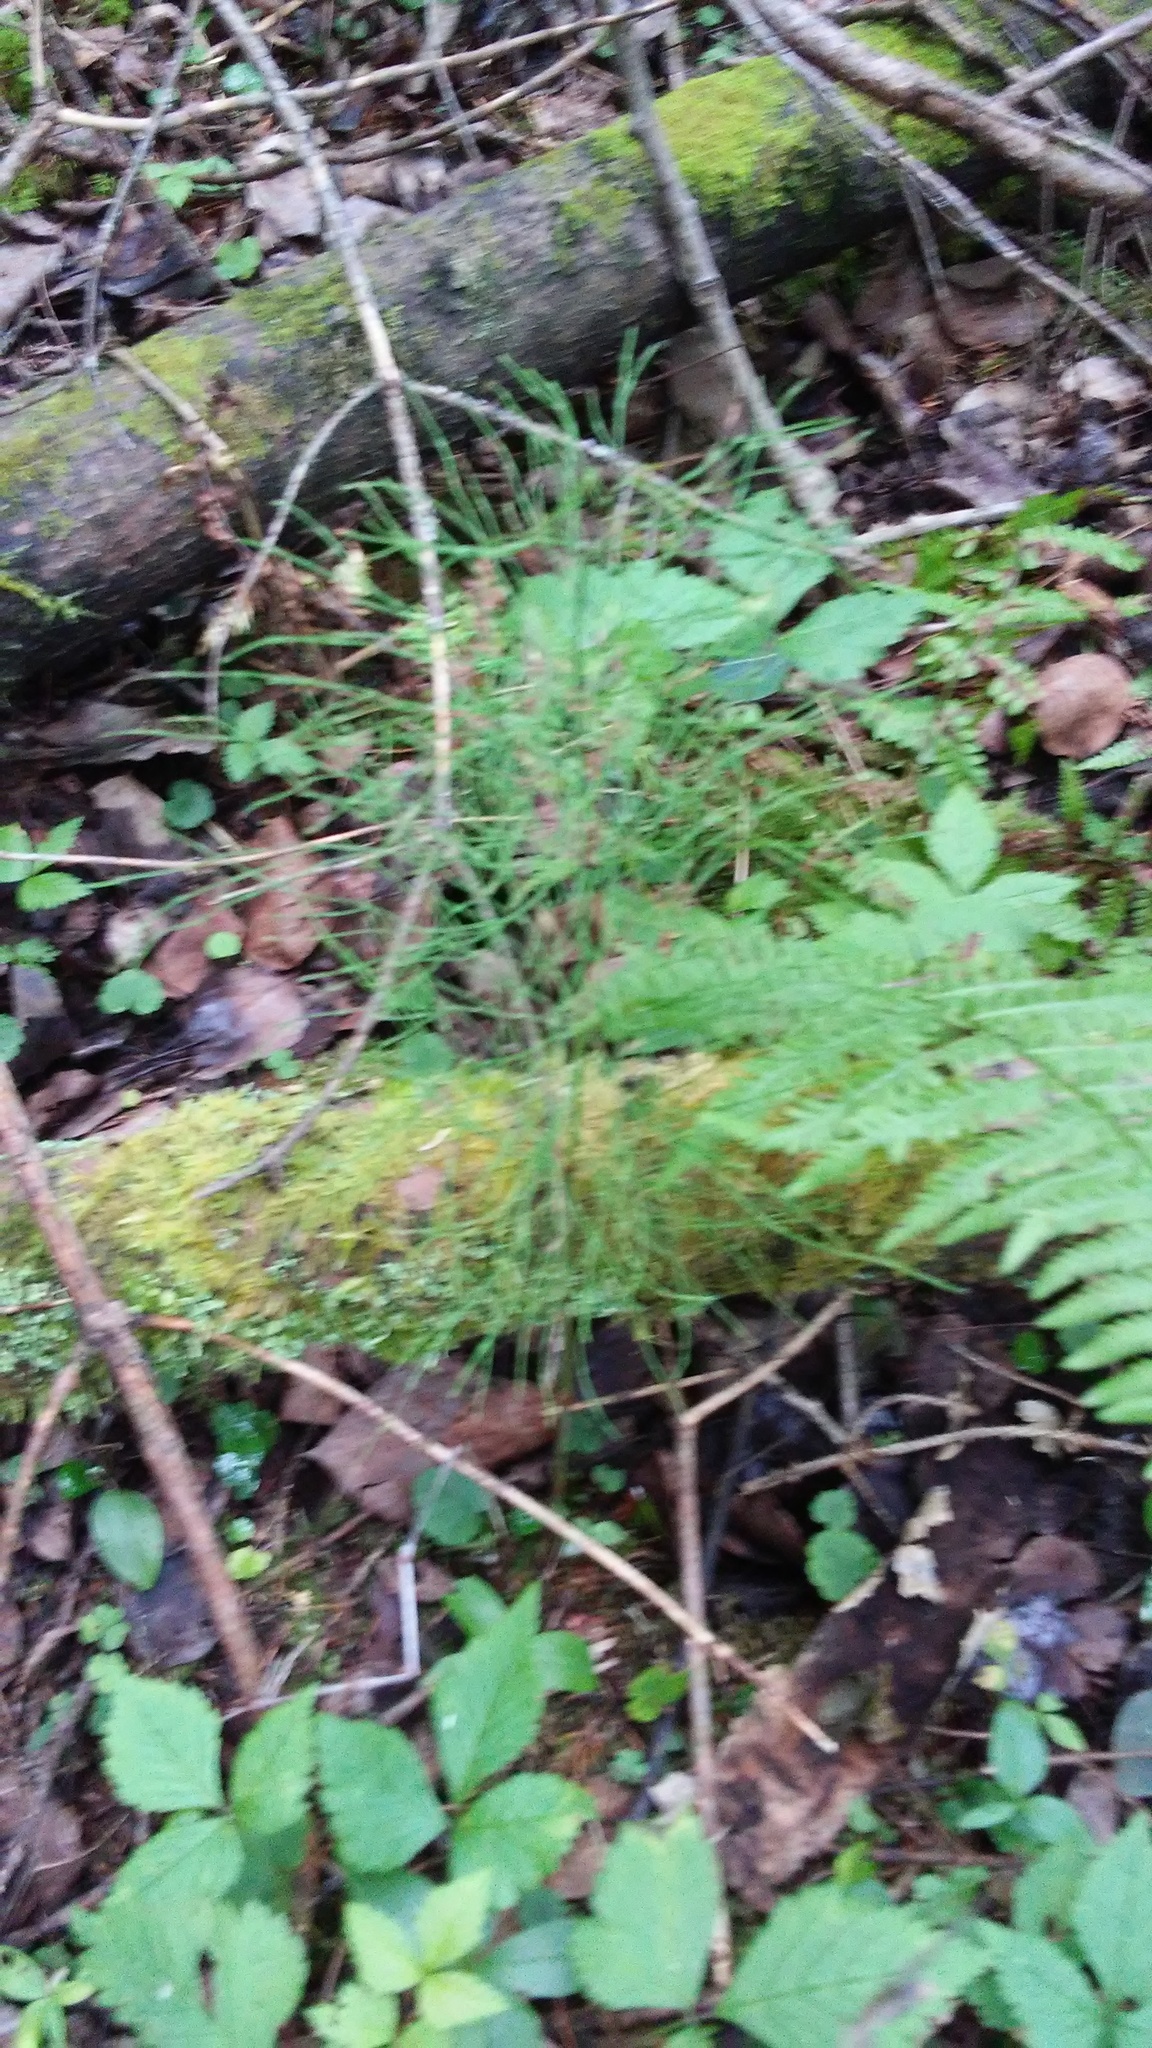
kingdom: Plantae
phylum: Tracheophyta
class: Polypodiopsida
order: Equisetales
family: Equisetaceae
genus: Equisetum
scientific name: Equisetum sylvaticum
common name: Wood horsetail
